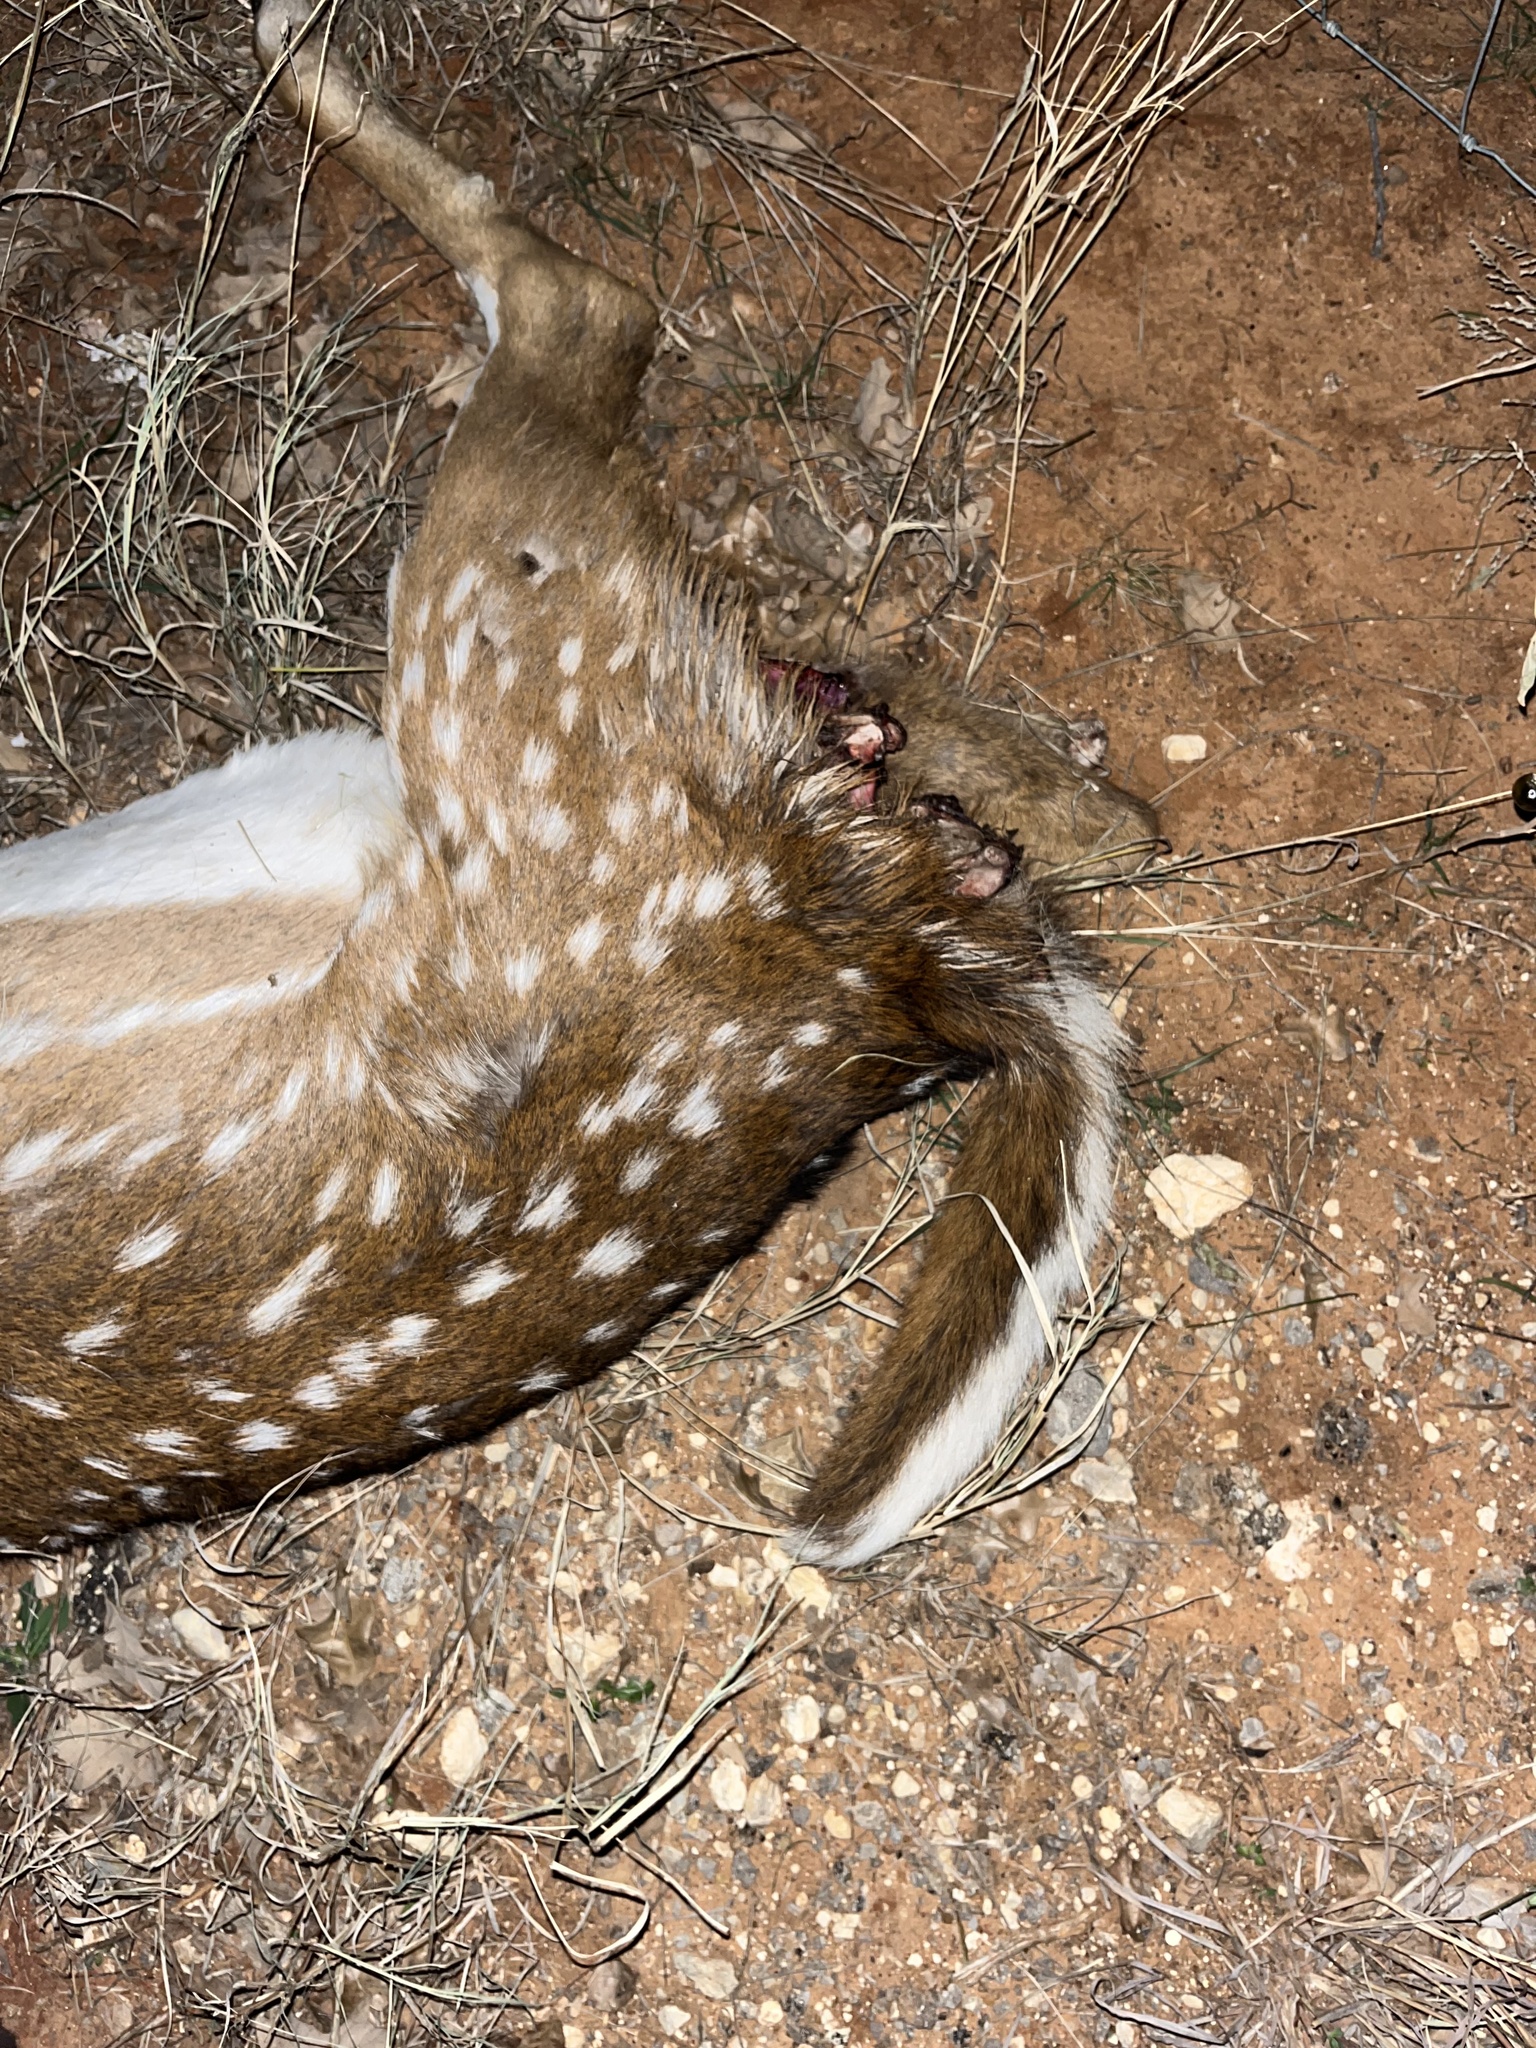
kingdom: Animalia
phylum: Chordata
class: Mammalia
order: Artiodactyla
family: Cervidae
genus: Axis
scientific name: Axis axis
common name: Chital
